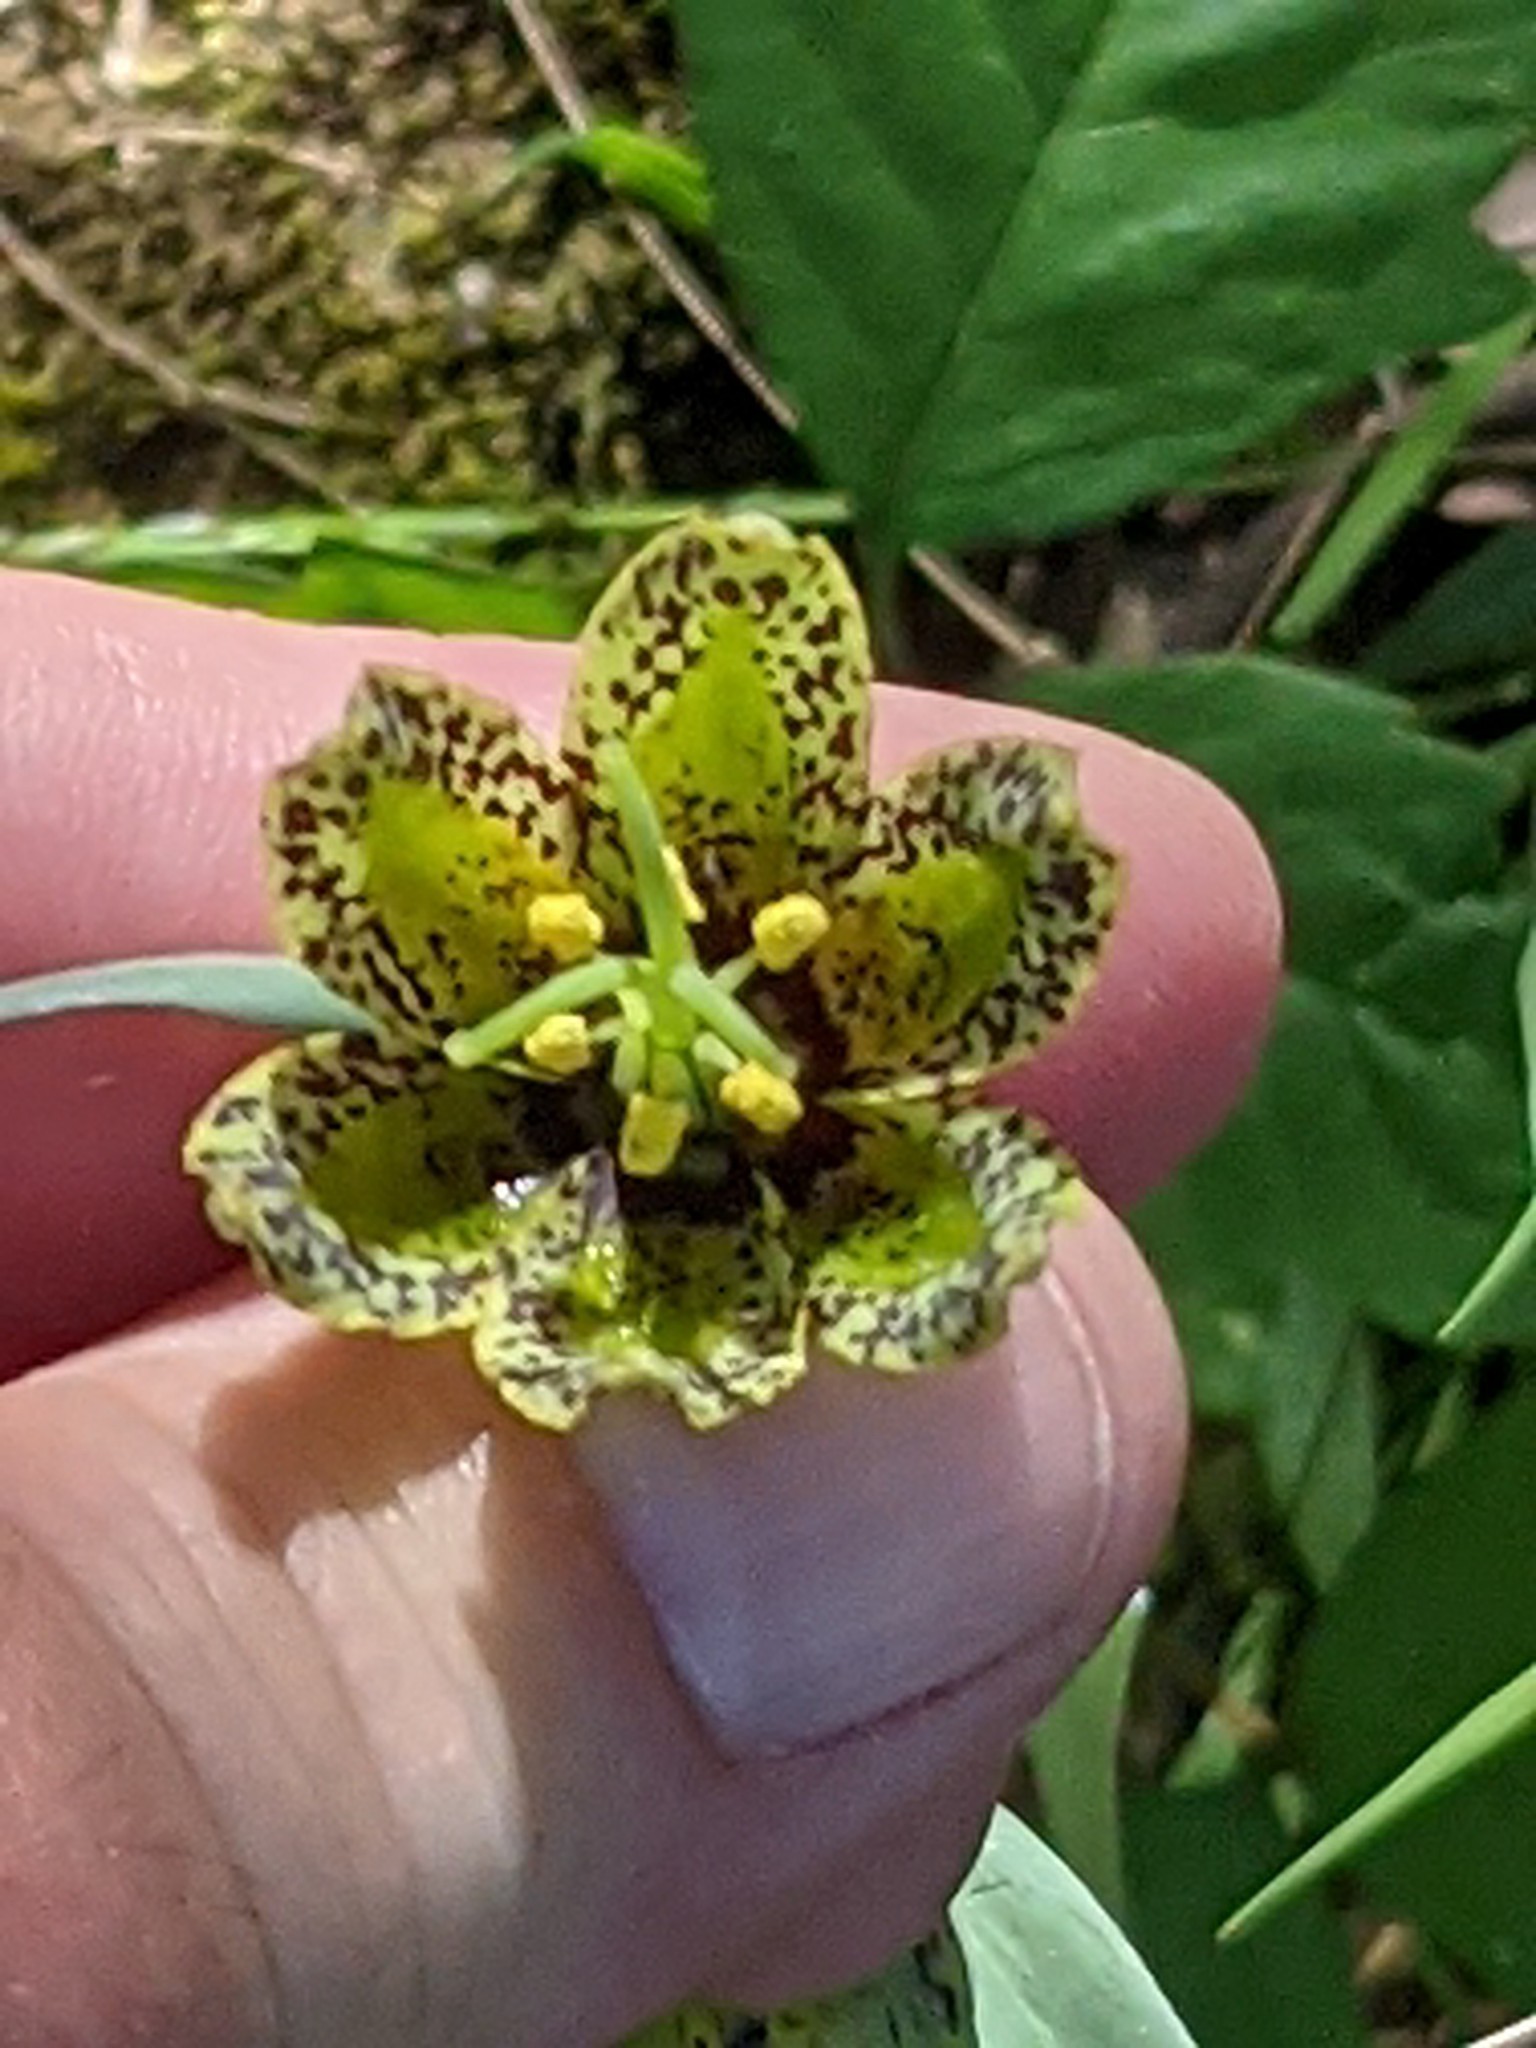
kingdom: Plantae
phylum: Tracheophyta
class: Liliopsida
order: Liliales
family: Liliaceae
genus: Fritillaria
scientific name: Fritillaria affinis
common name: Ojai fritillary
